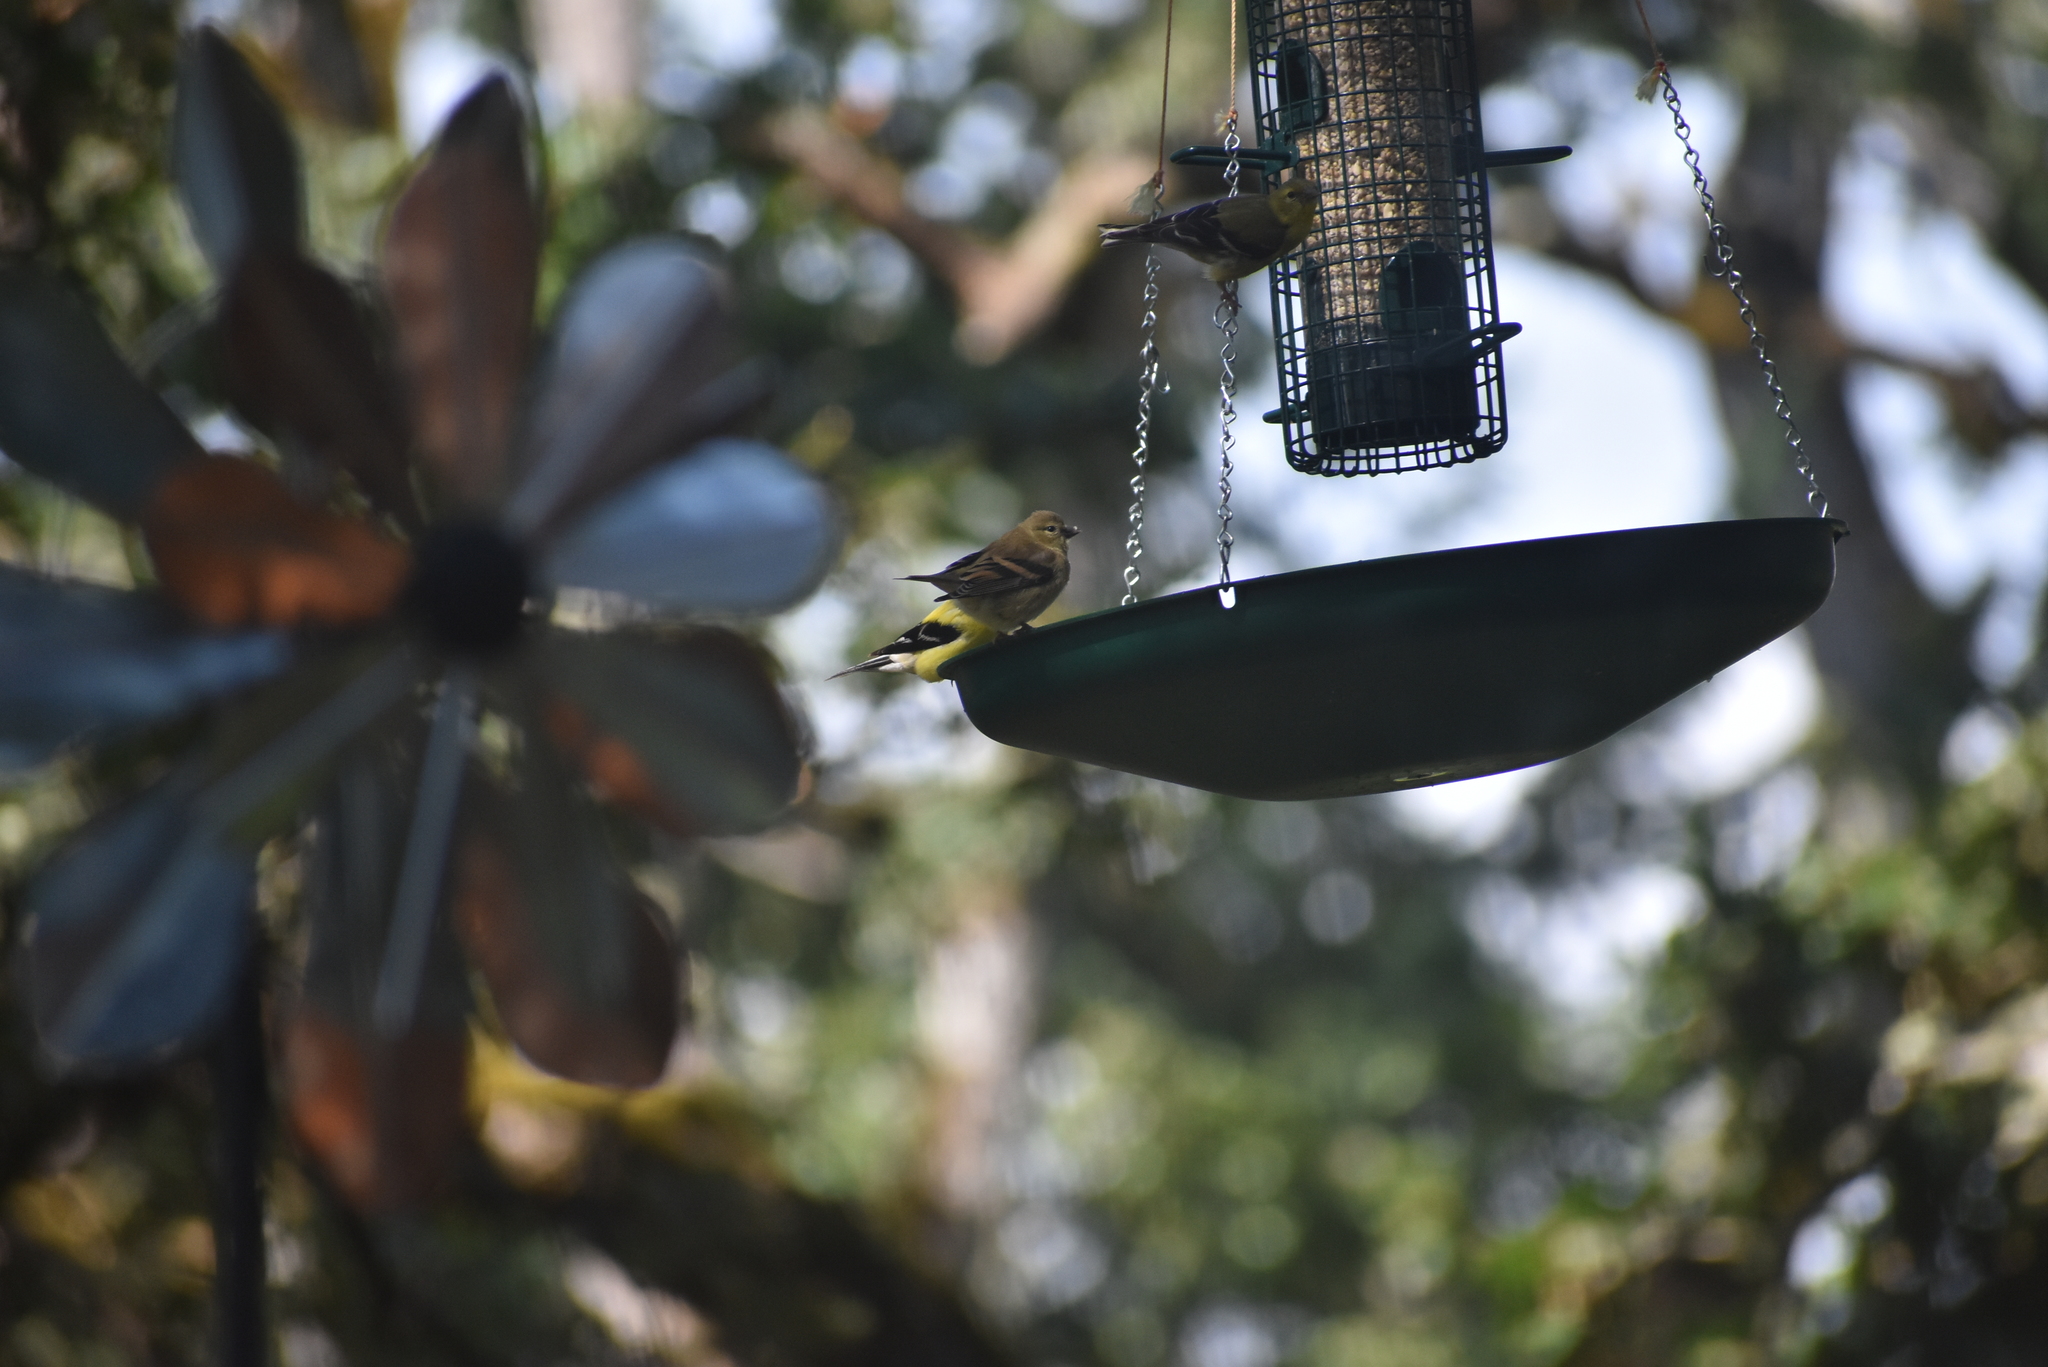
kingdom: Animalia
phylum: Chordata
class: Aves
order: Passeriformes
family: Fringillidae
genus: Spinus
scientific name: Spinus tristis
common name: American goldfinch
